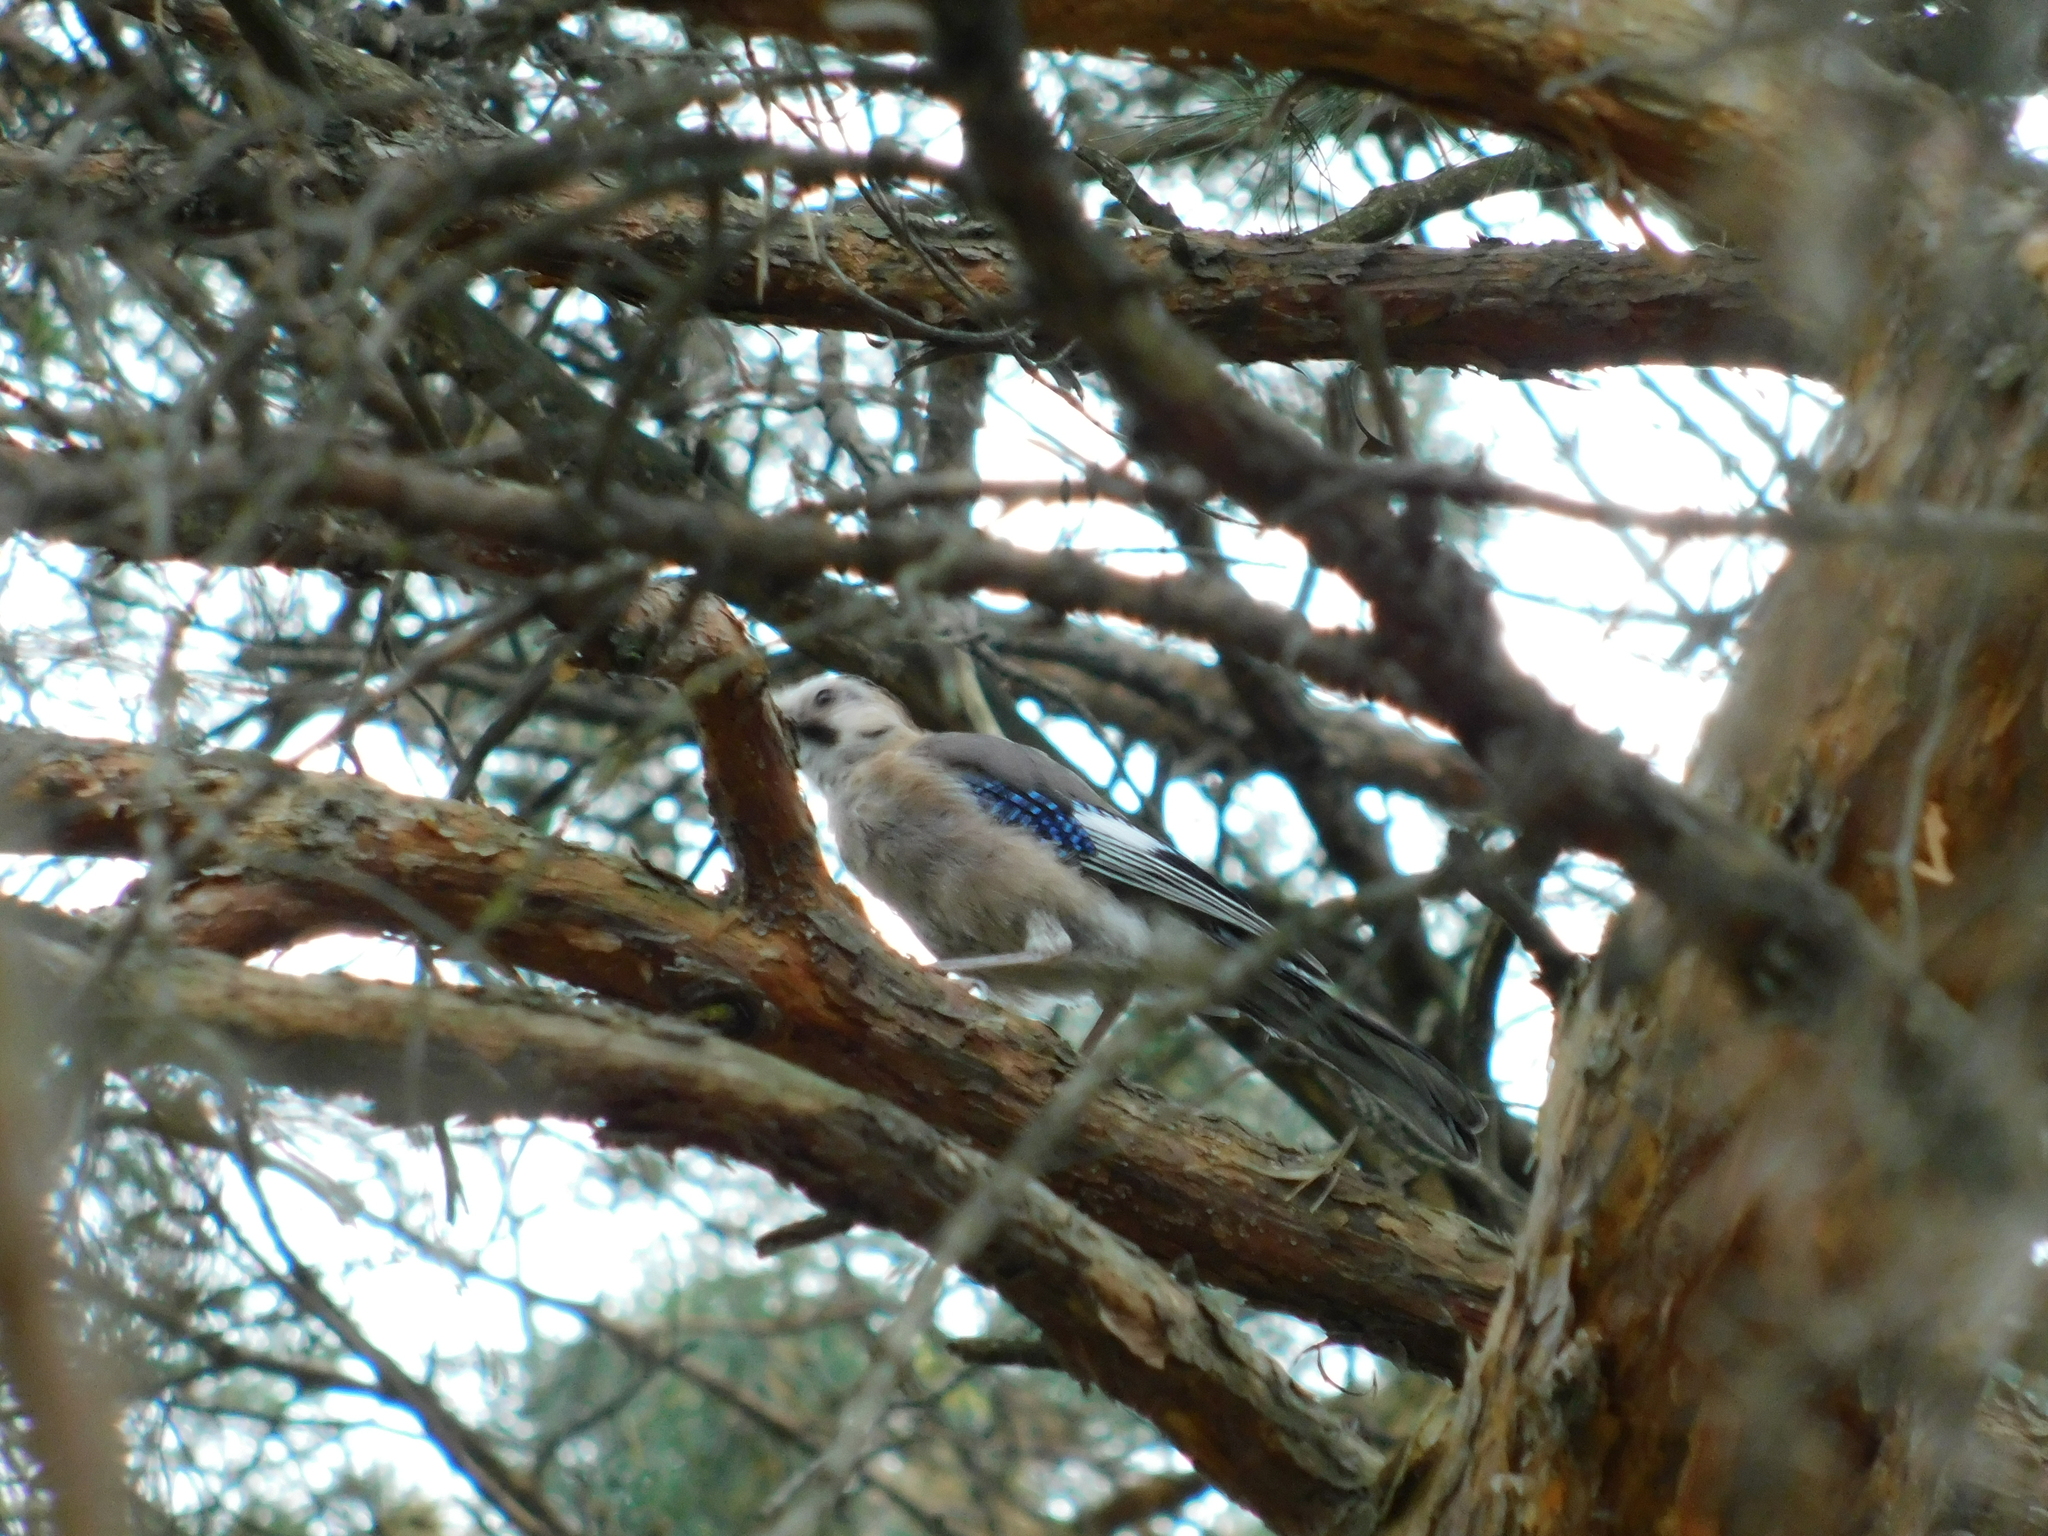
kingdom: Animalia
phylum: Chordata
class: Aves
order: Passeriformes
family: Corvidae
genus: Garrulus
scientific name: Garrulus glandarius
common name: Eurasian jay
